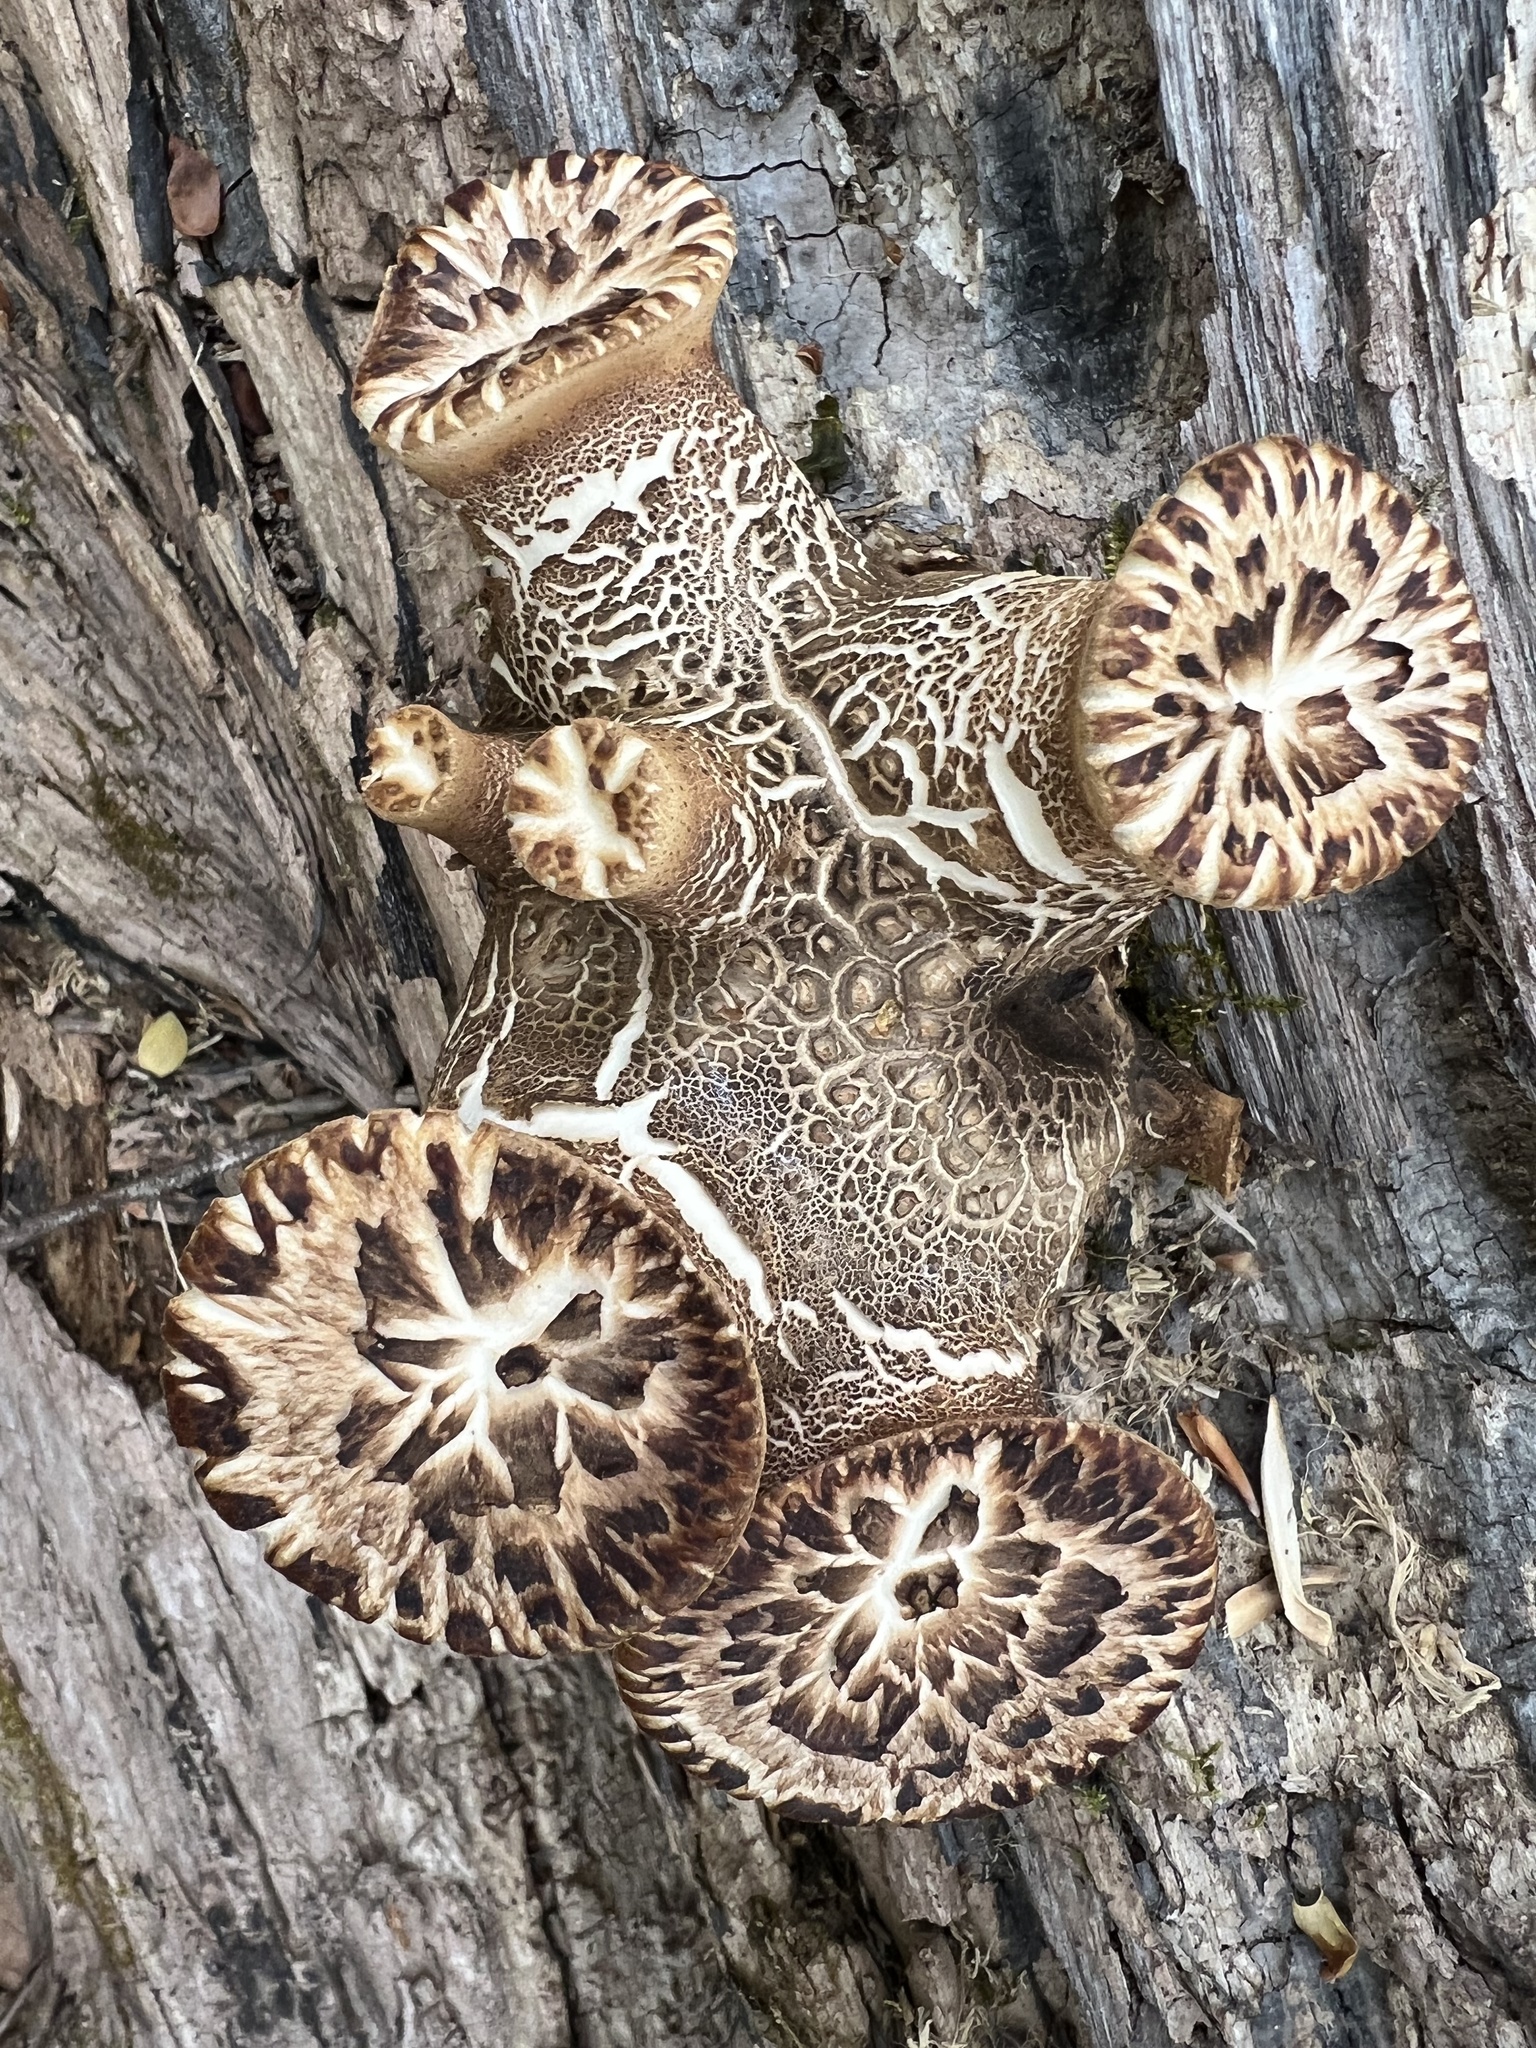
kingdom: Fungi
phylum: Basidiomycota
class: Agaricomycetes
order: Polyporales
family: Polyporaceae
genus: Cerioporus
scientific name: Cerioporus squamosus
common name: Dryad's saddle
